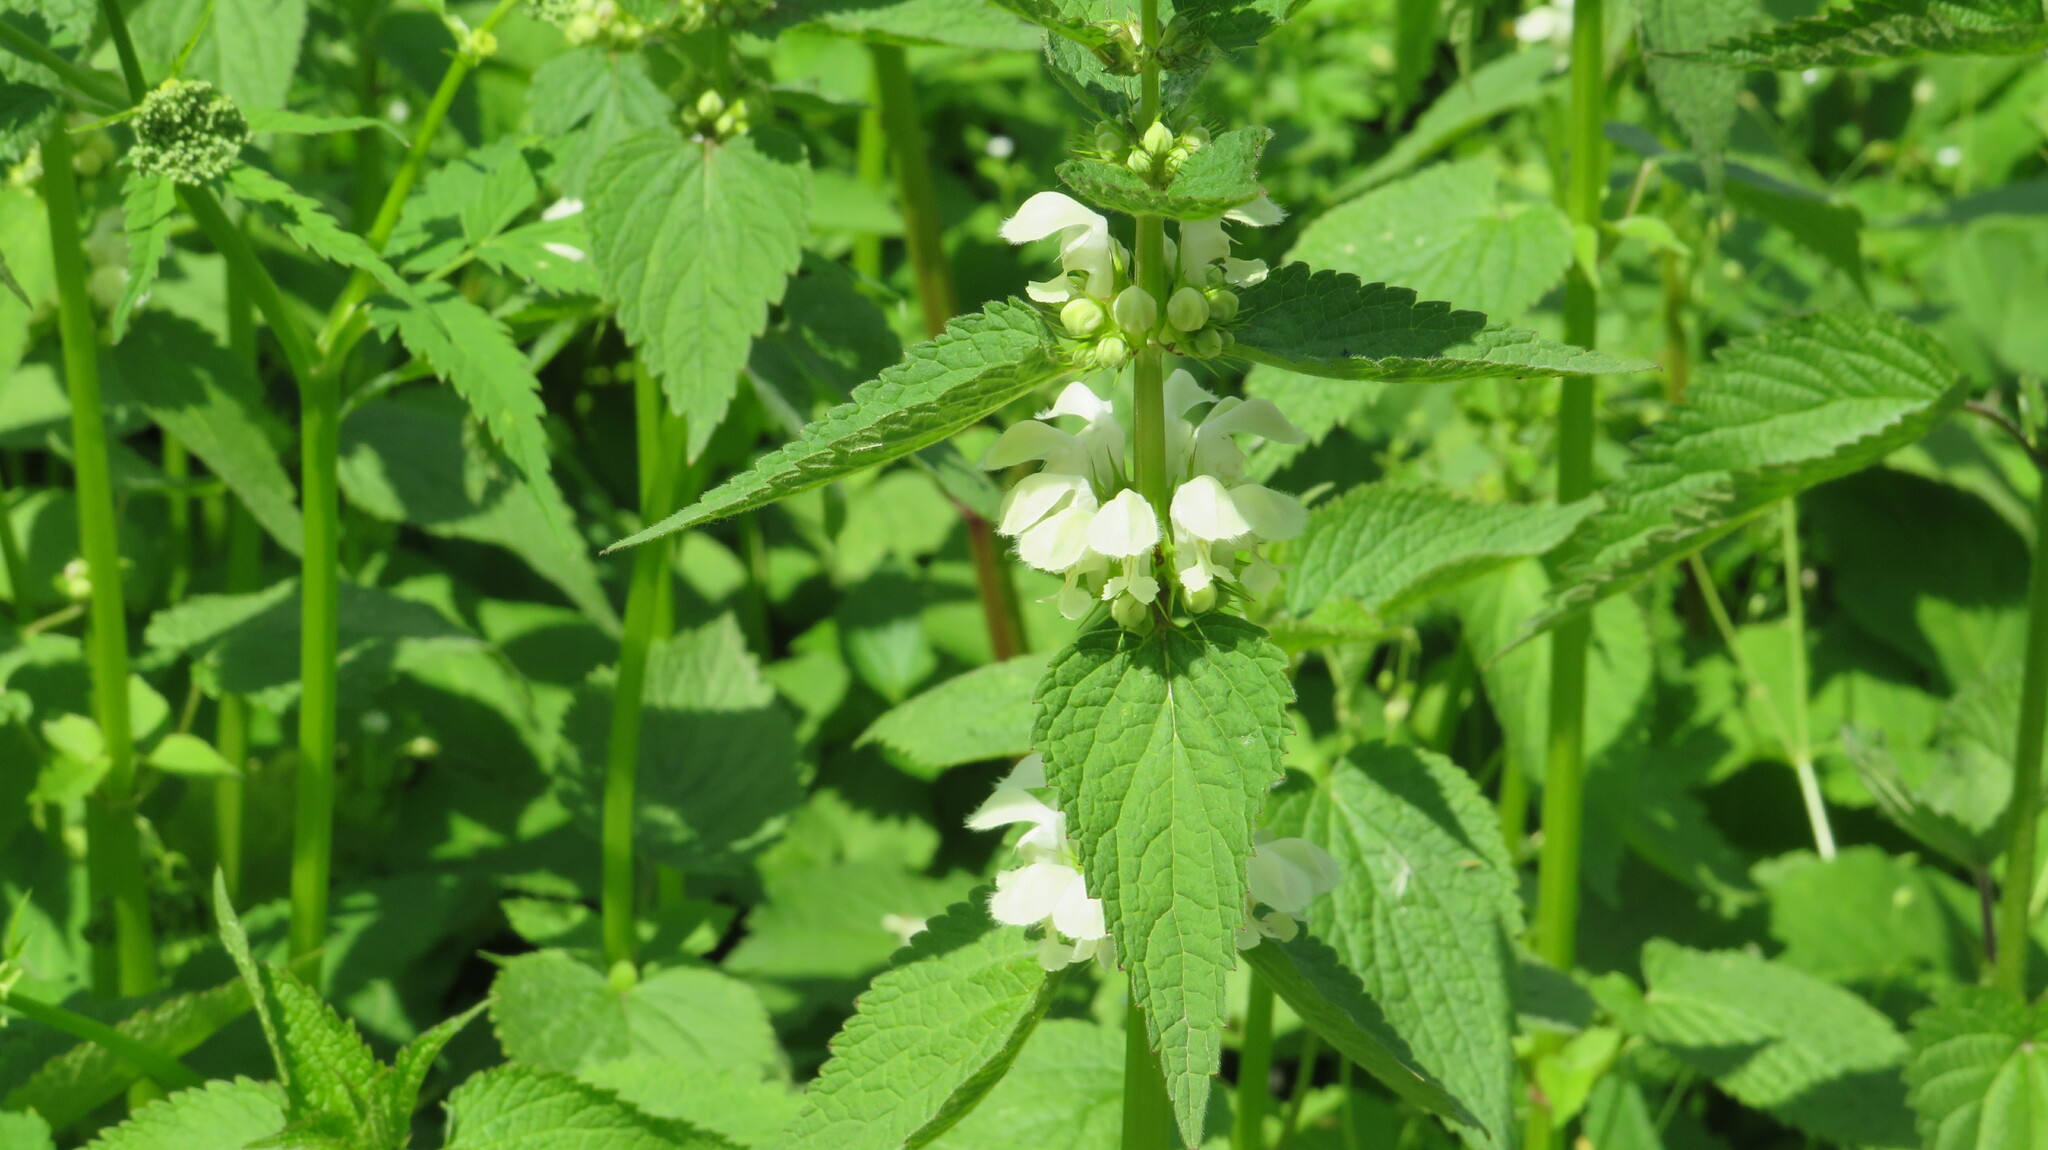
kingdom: Plantae
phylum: Tracheophyta
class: Magnoliopsida
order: Lamiales
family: Lamiaceae
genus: Lamium
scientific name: Lamium album
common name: White dead-nettle
